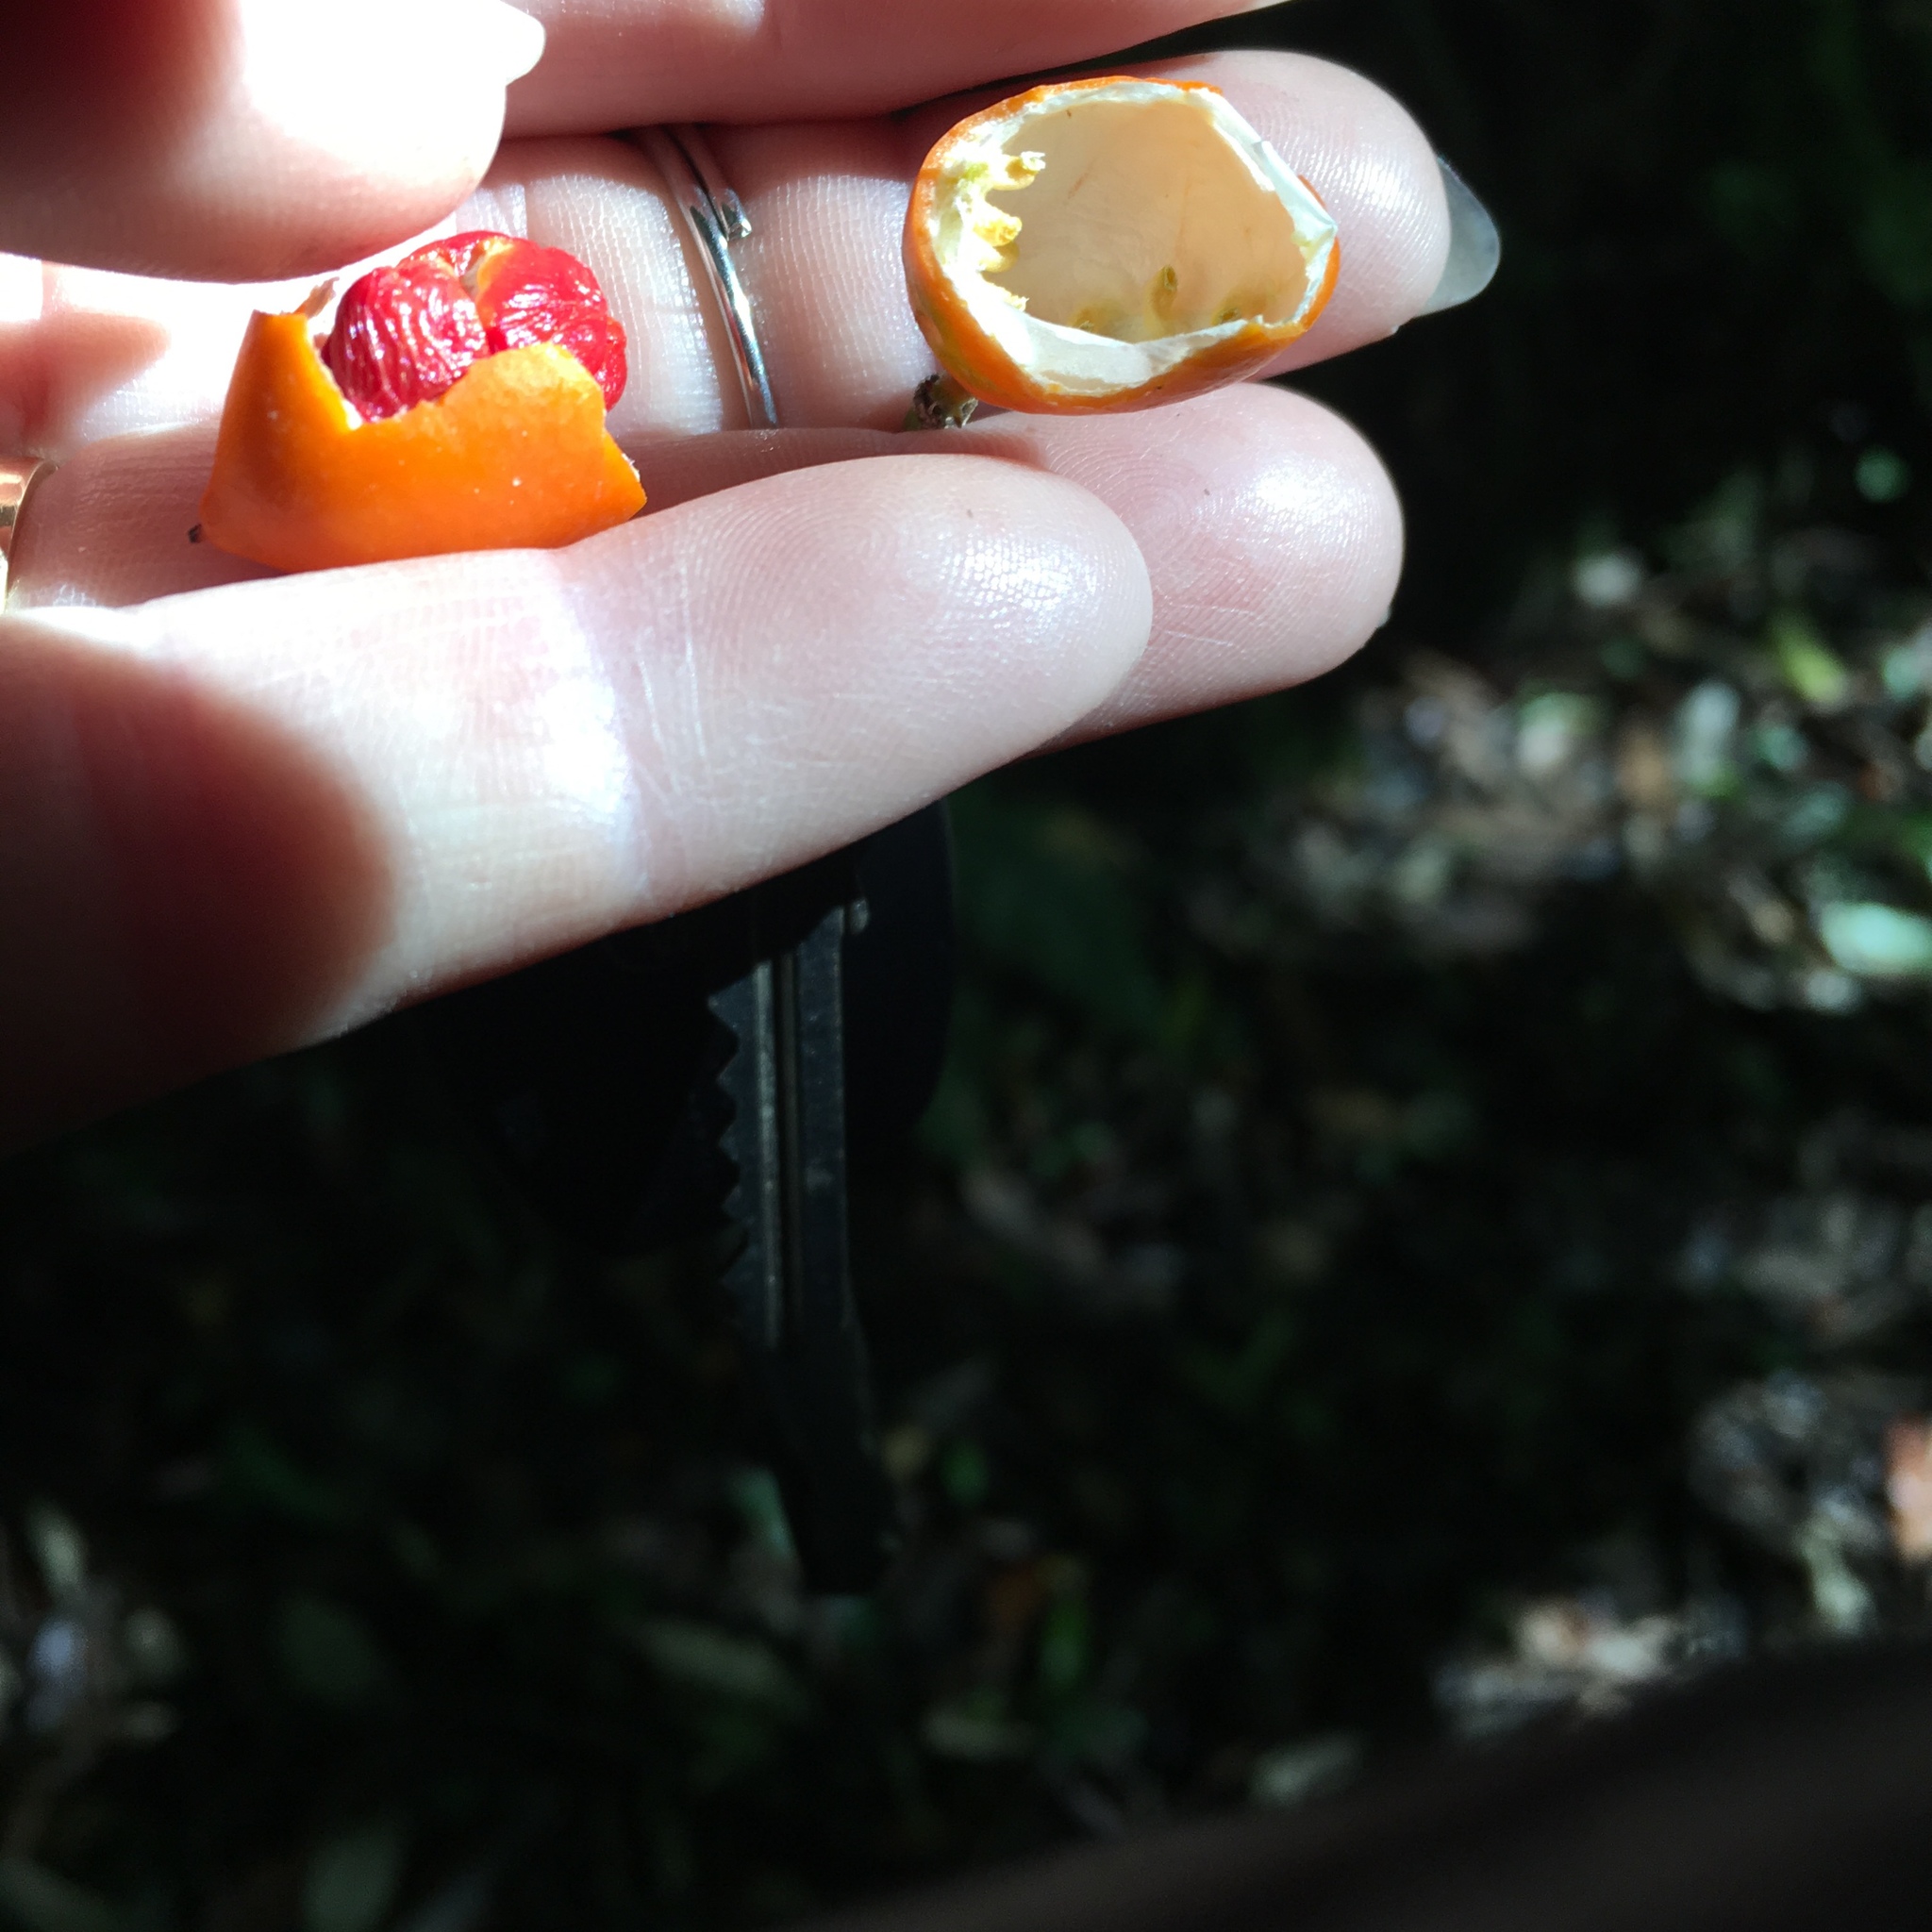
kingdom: Plantae
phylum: Tracheophyta
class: Magnoliopsida
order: Malpighiales
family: Passifloraceae
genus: Passiflora
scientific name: Passiflora tetrandra
